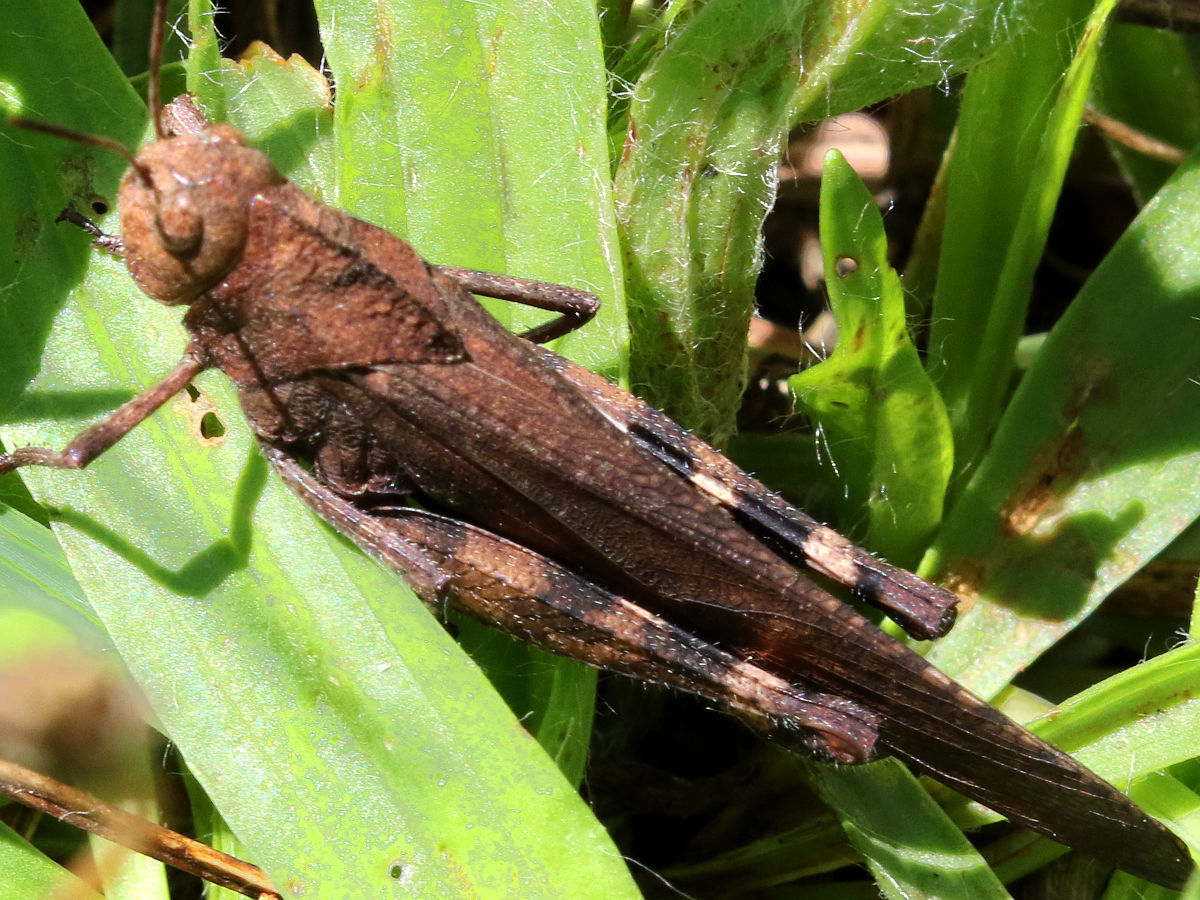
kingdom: Animalia
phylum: Arthropoda
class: Insecta
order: Orthoptera
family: Acrididae
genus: Arphia
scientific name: Arphia xanthoptera
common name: Autumn yellow-winged grasshopper
